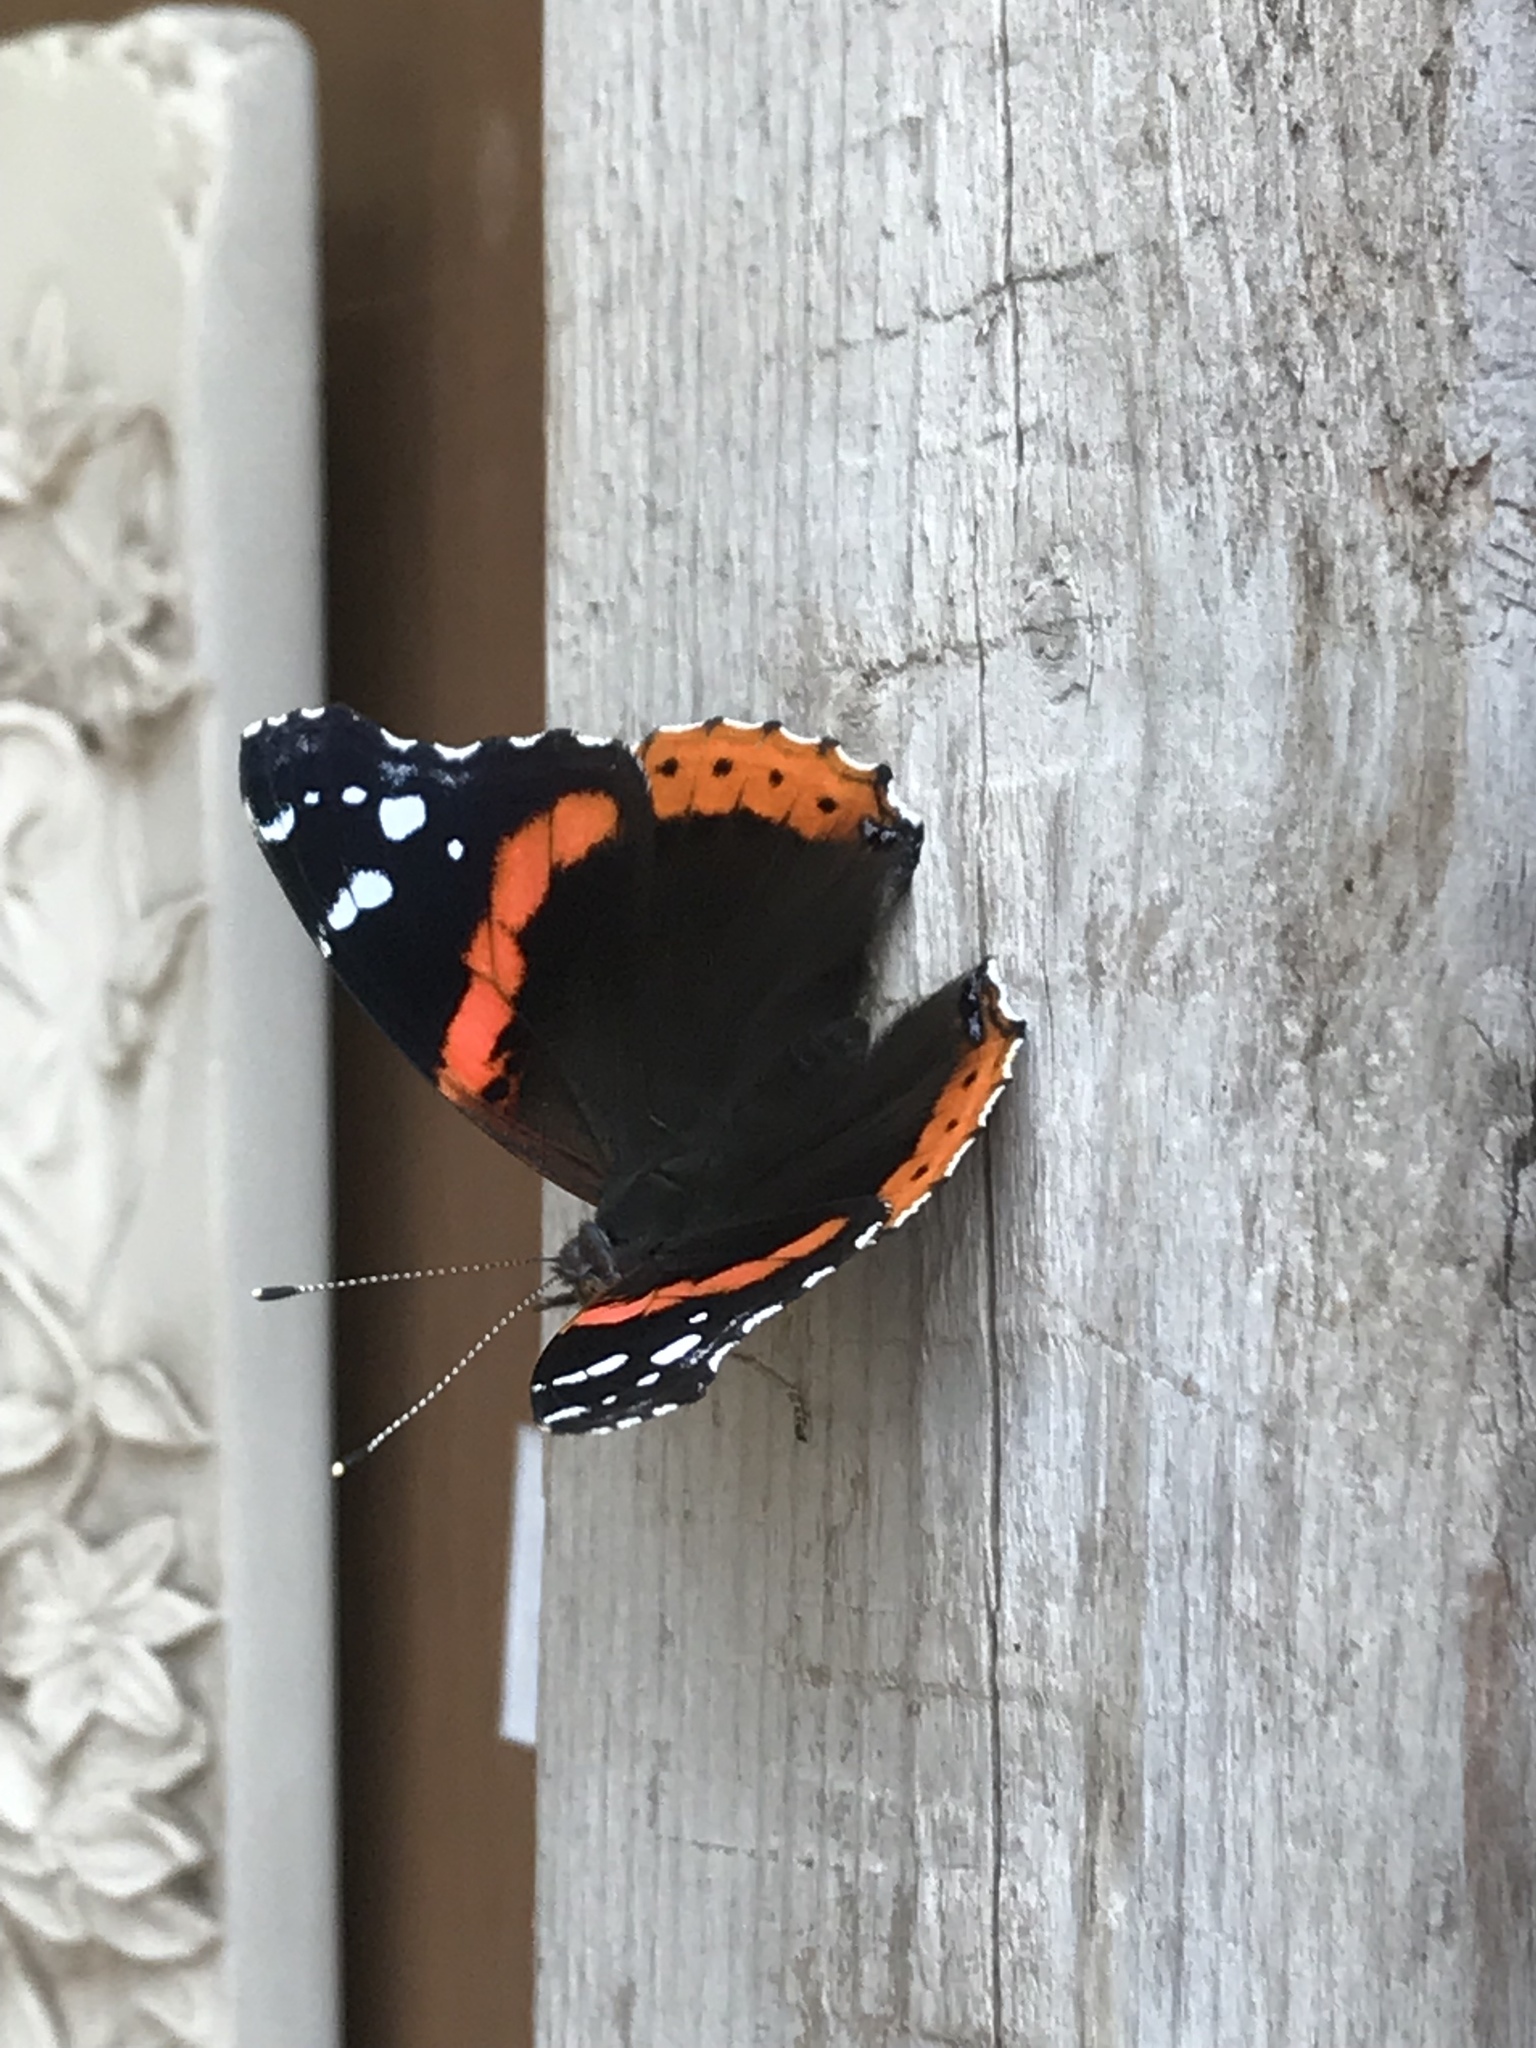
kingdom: Animalia
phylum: Arthropoda
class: Insecta
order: Lepidoptera
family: Nymphalidae
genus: Vanessa
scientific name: Vanessa atalanta
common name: Red admiral
